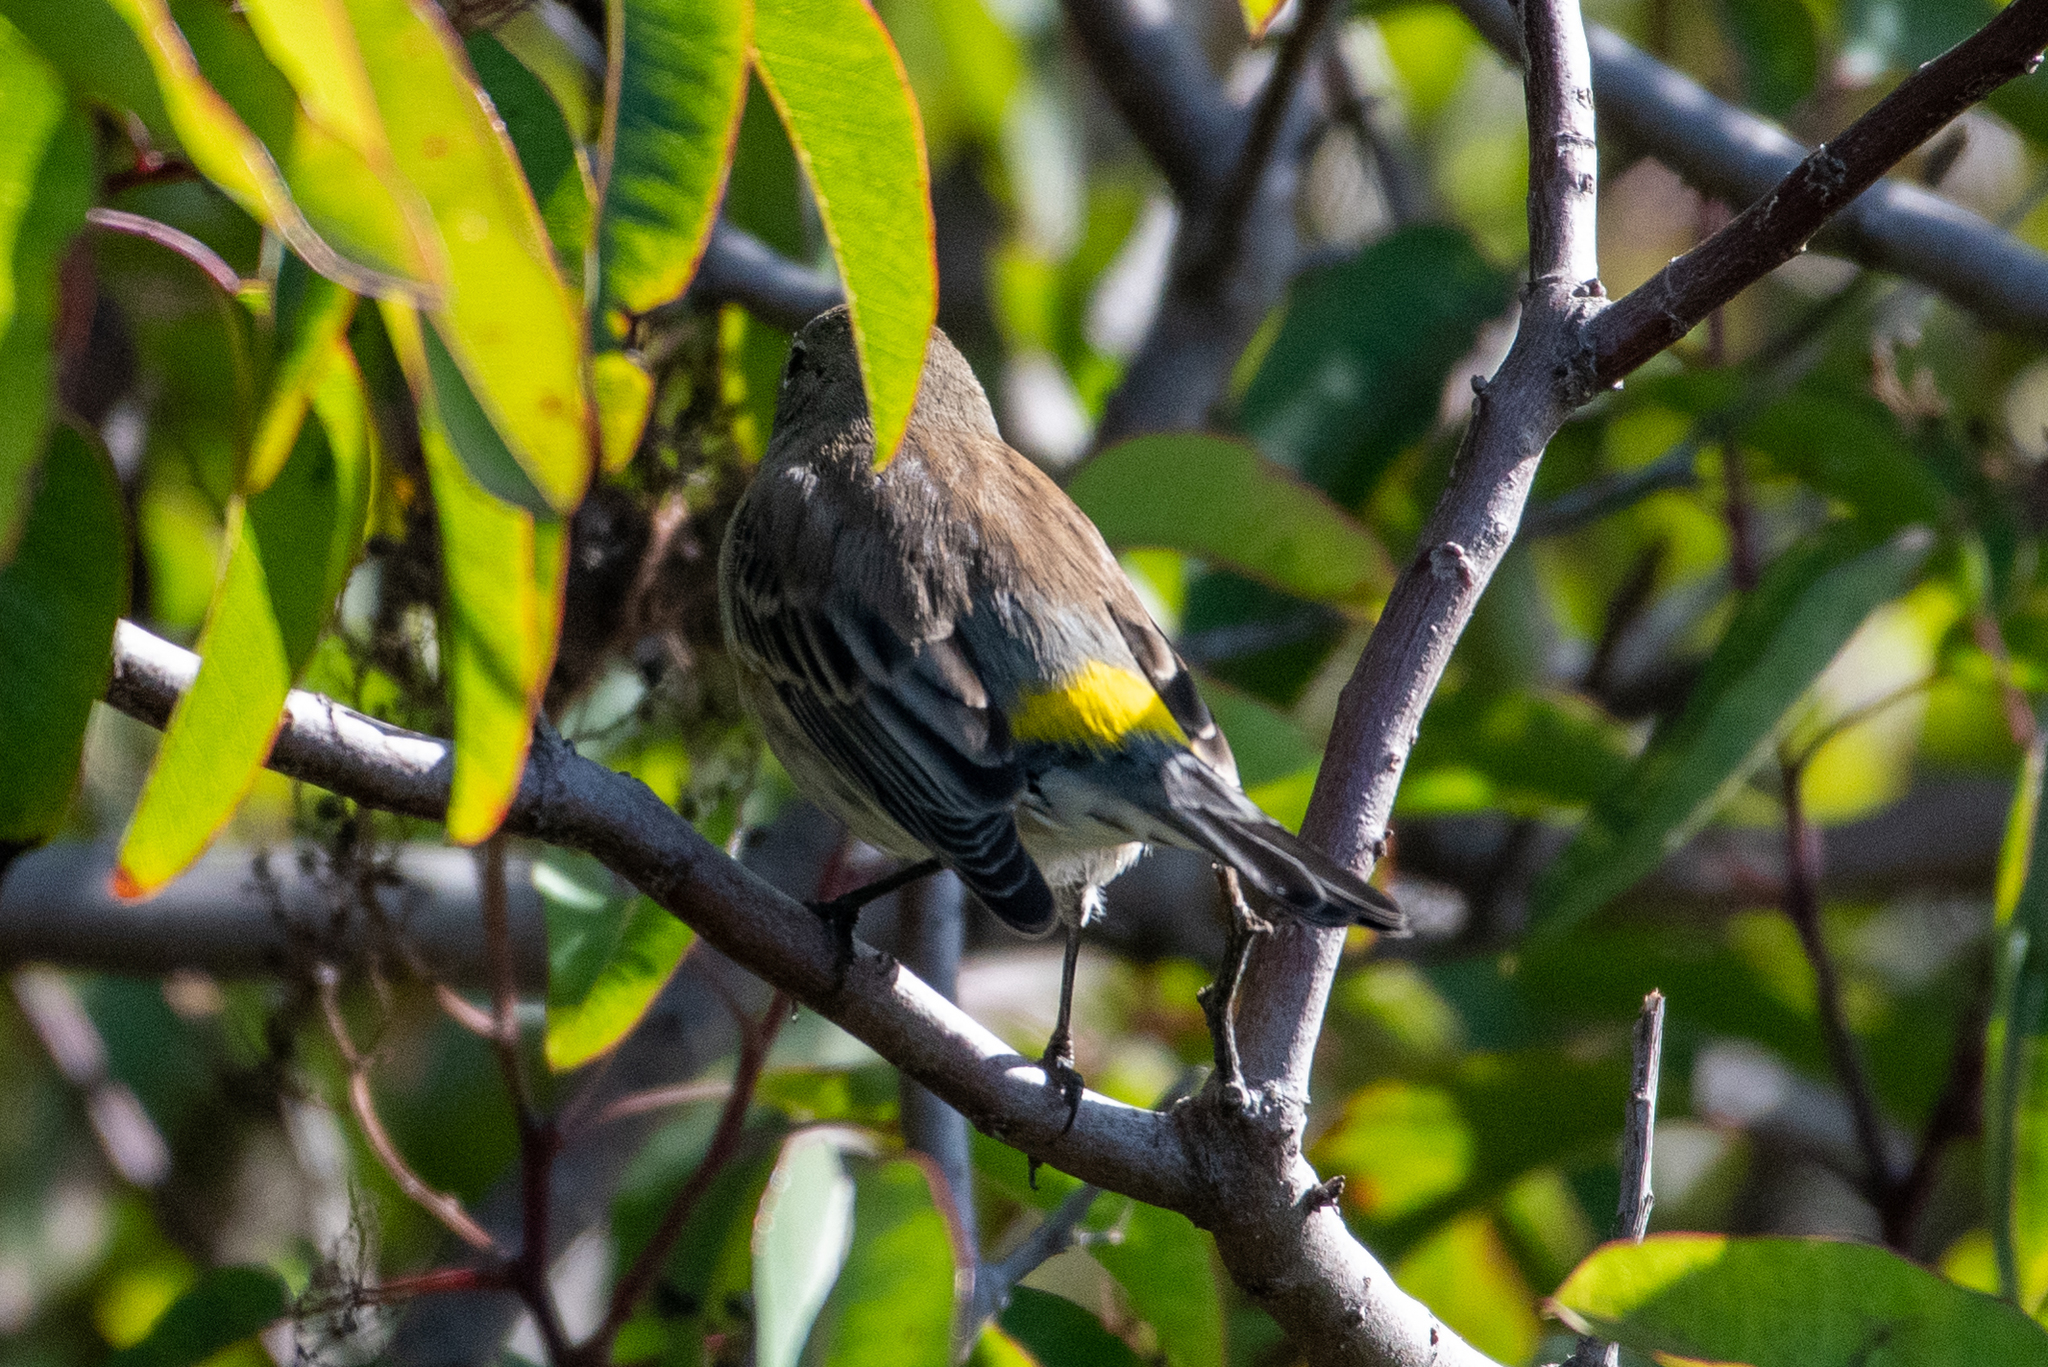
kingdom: Animalia
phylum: Chordata
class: Aves
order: Passeriformes
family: Parulidae
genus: Setophaga
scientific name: Setophaga coronata
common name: Myrtle warbler
